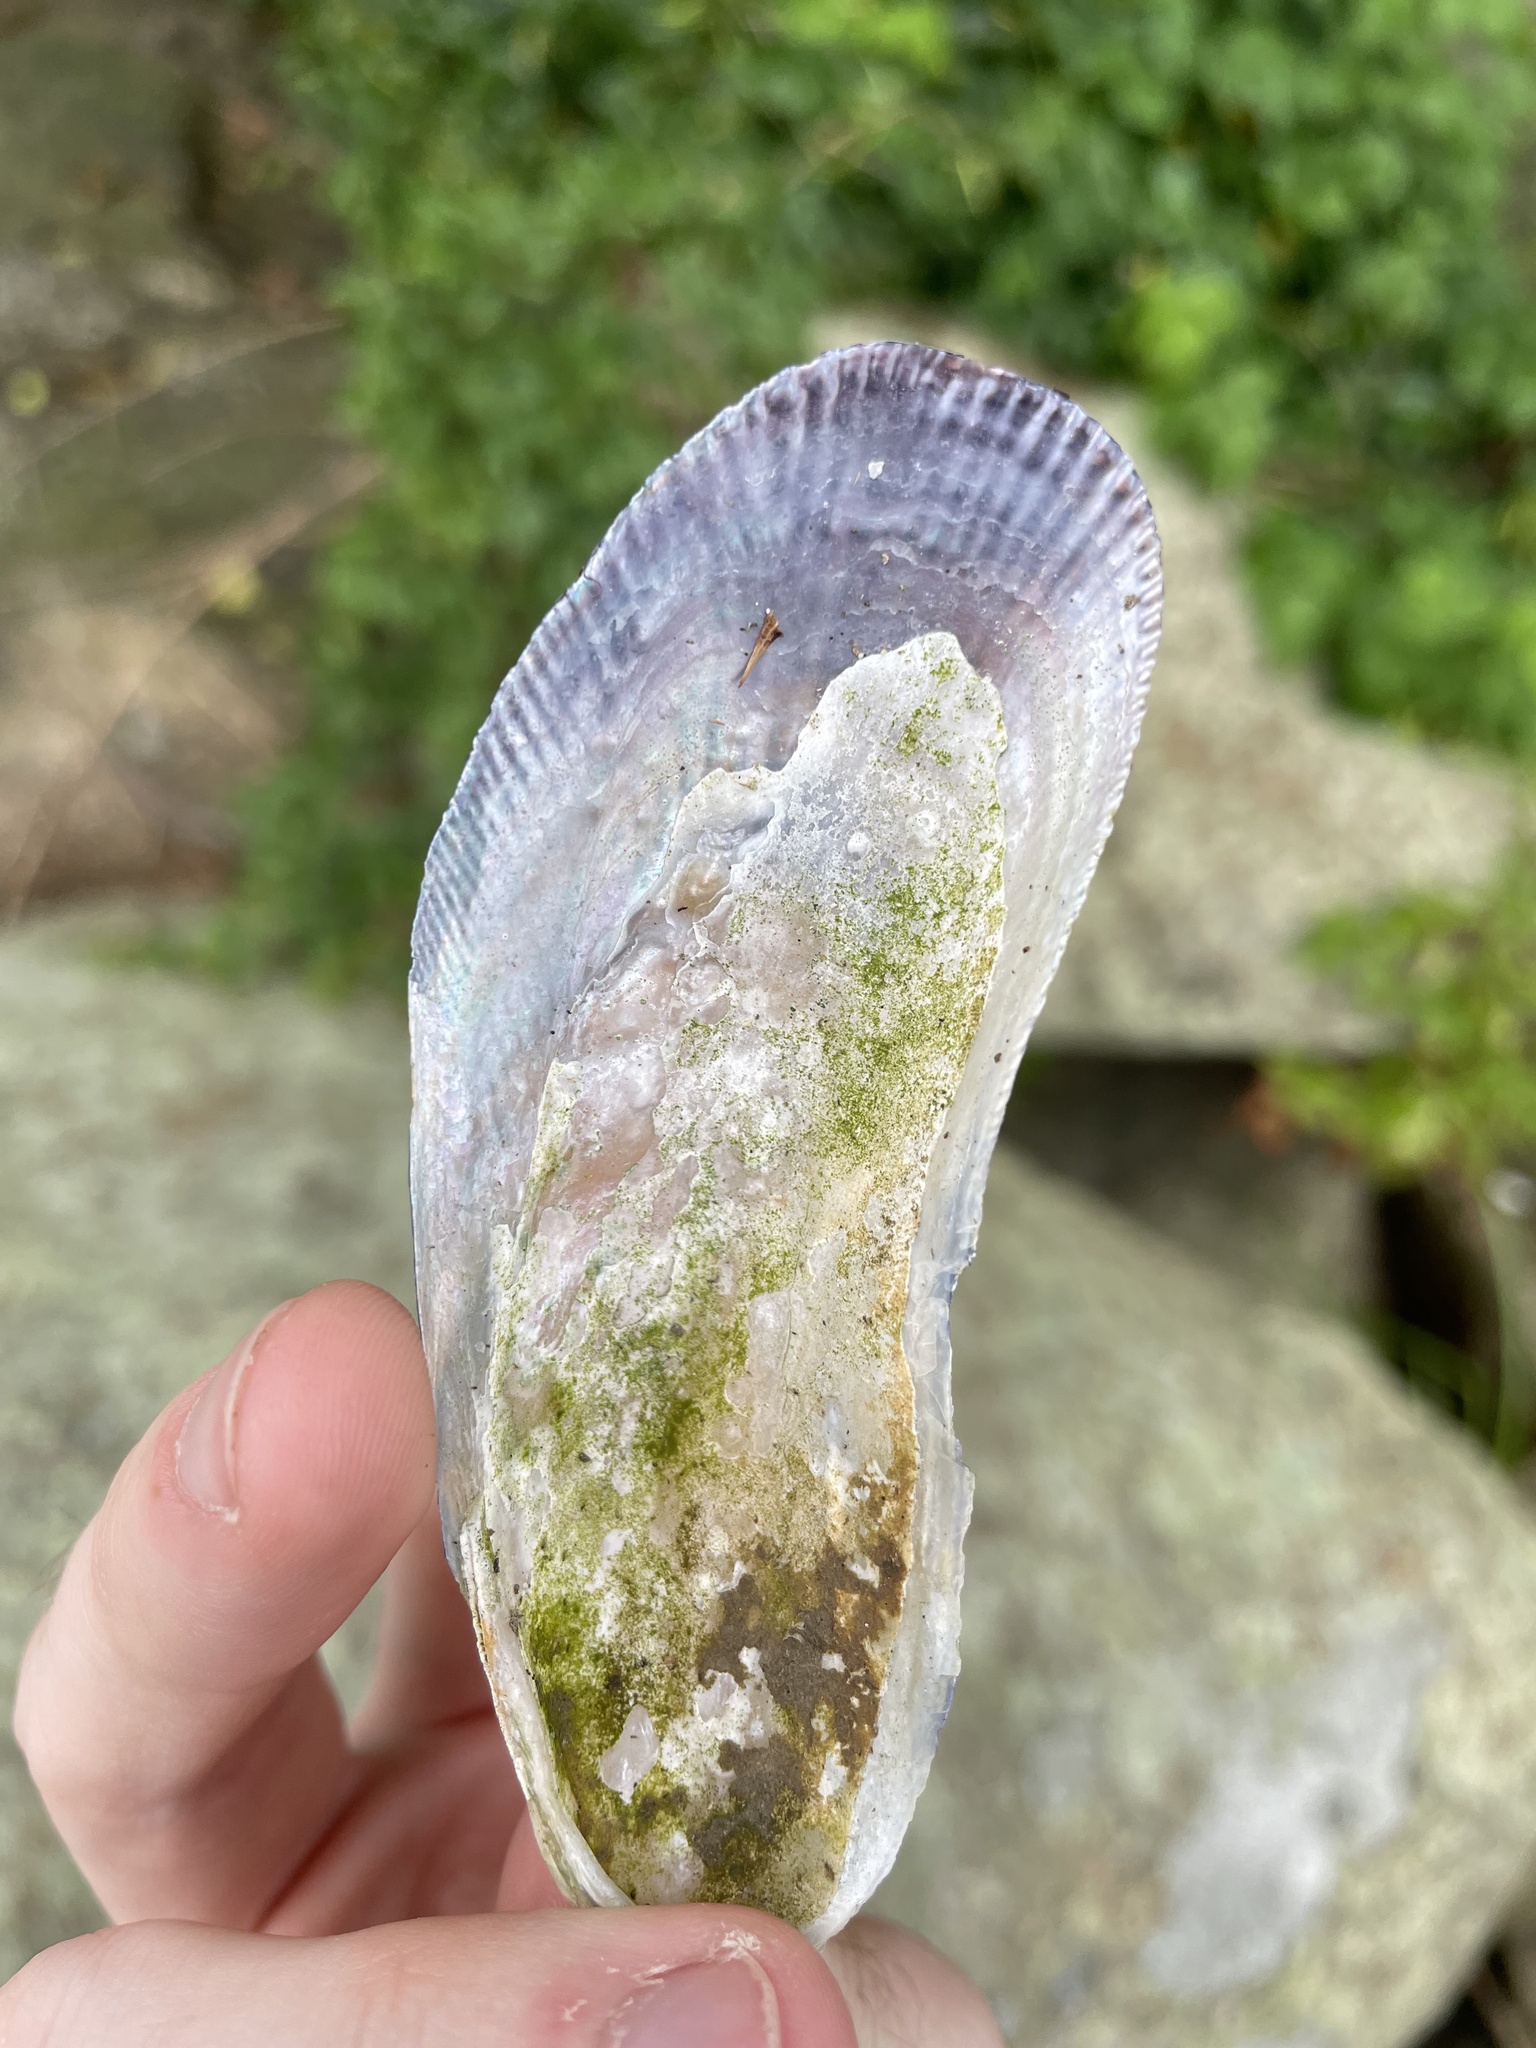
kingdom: Animalia
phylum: Mollusca
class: Bivalvia
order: Mytilida
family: Mytilidae
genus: Geukensia
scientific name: Geukensia demissa
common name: Ribbed mussel
